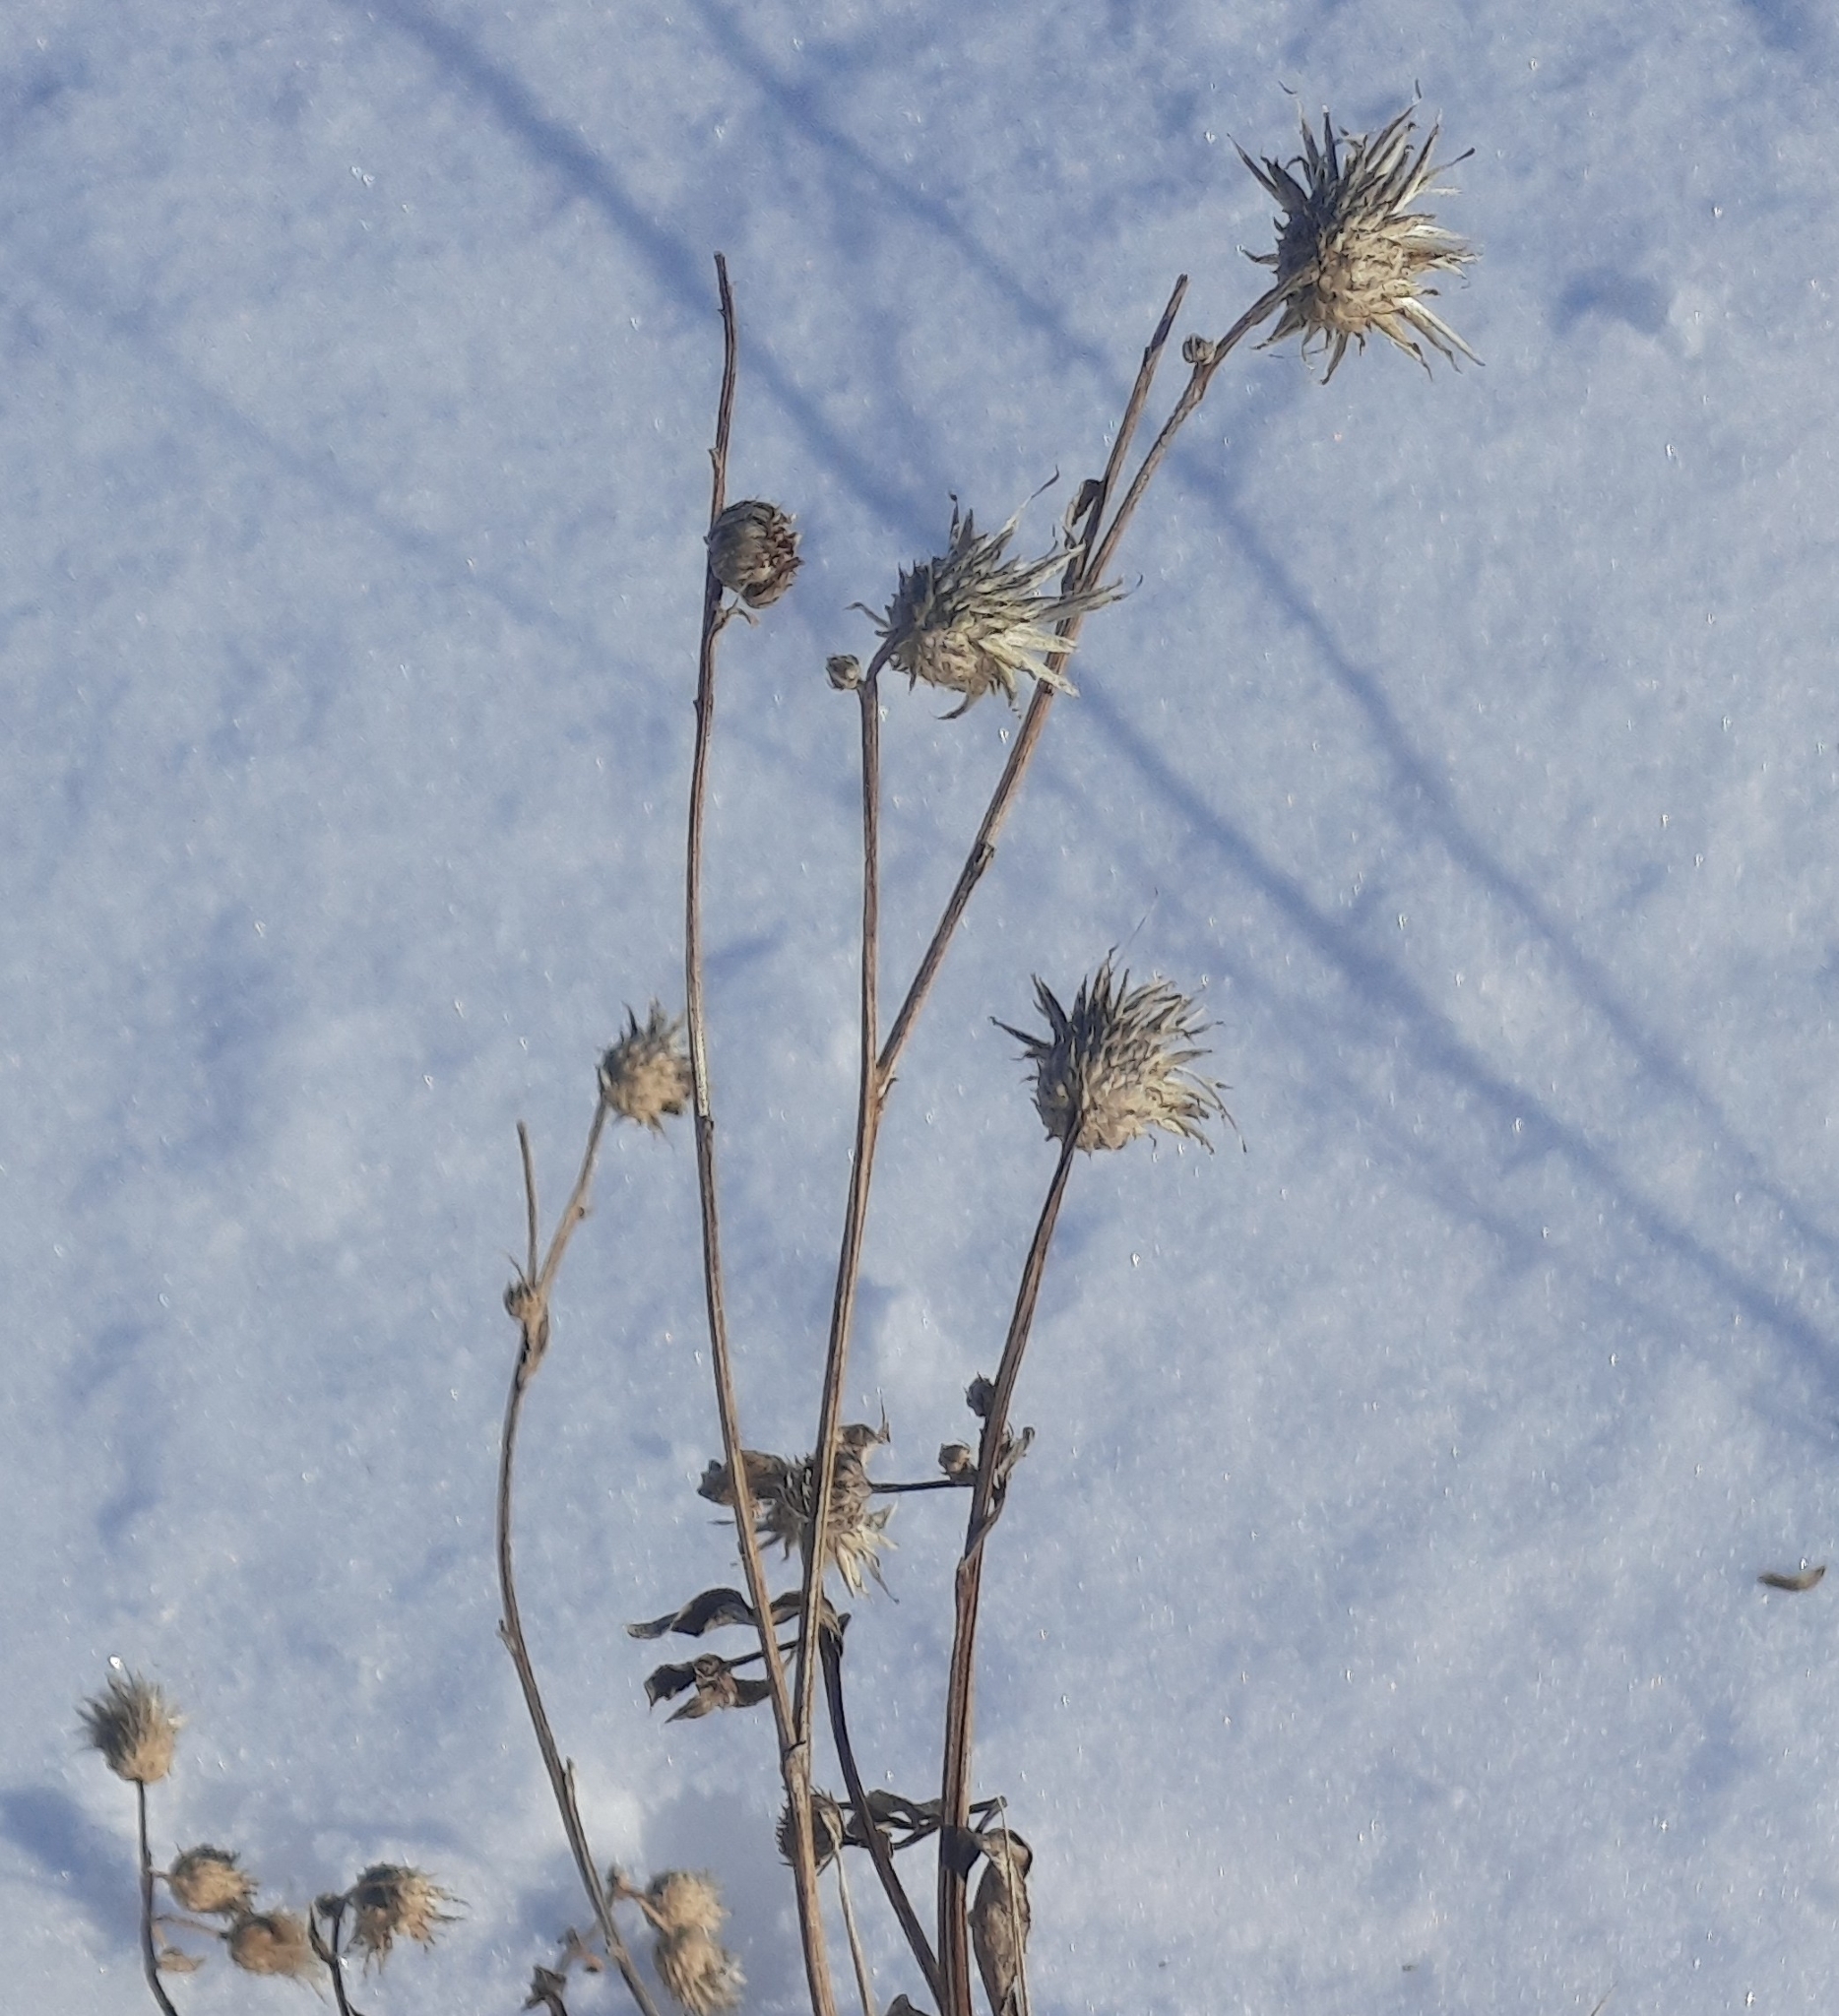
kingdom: Plantae
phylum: Tracheophyta
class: Magnoliopsida
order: Asterales
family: Asteraceae
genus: Cirsium
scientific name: Cirsium arvense
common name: Creeping thistle
